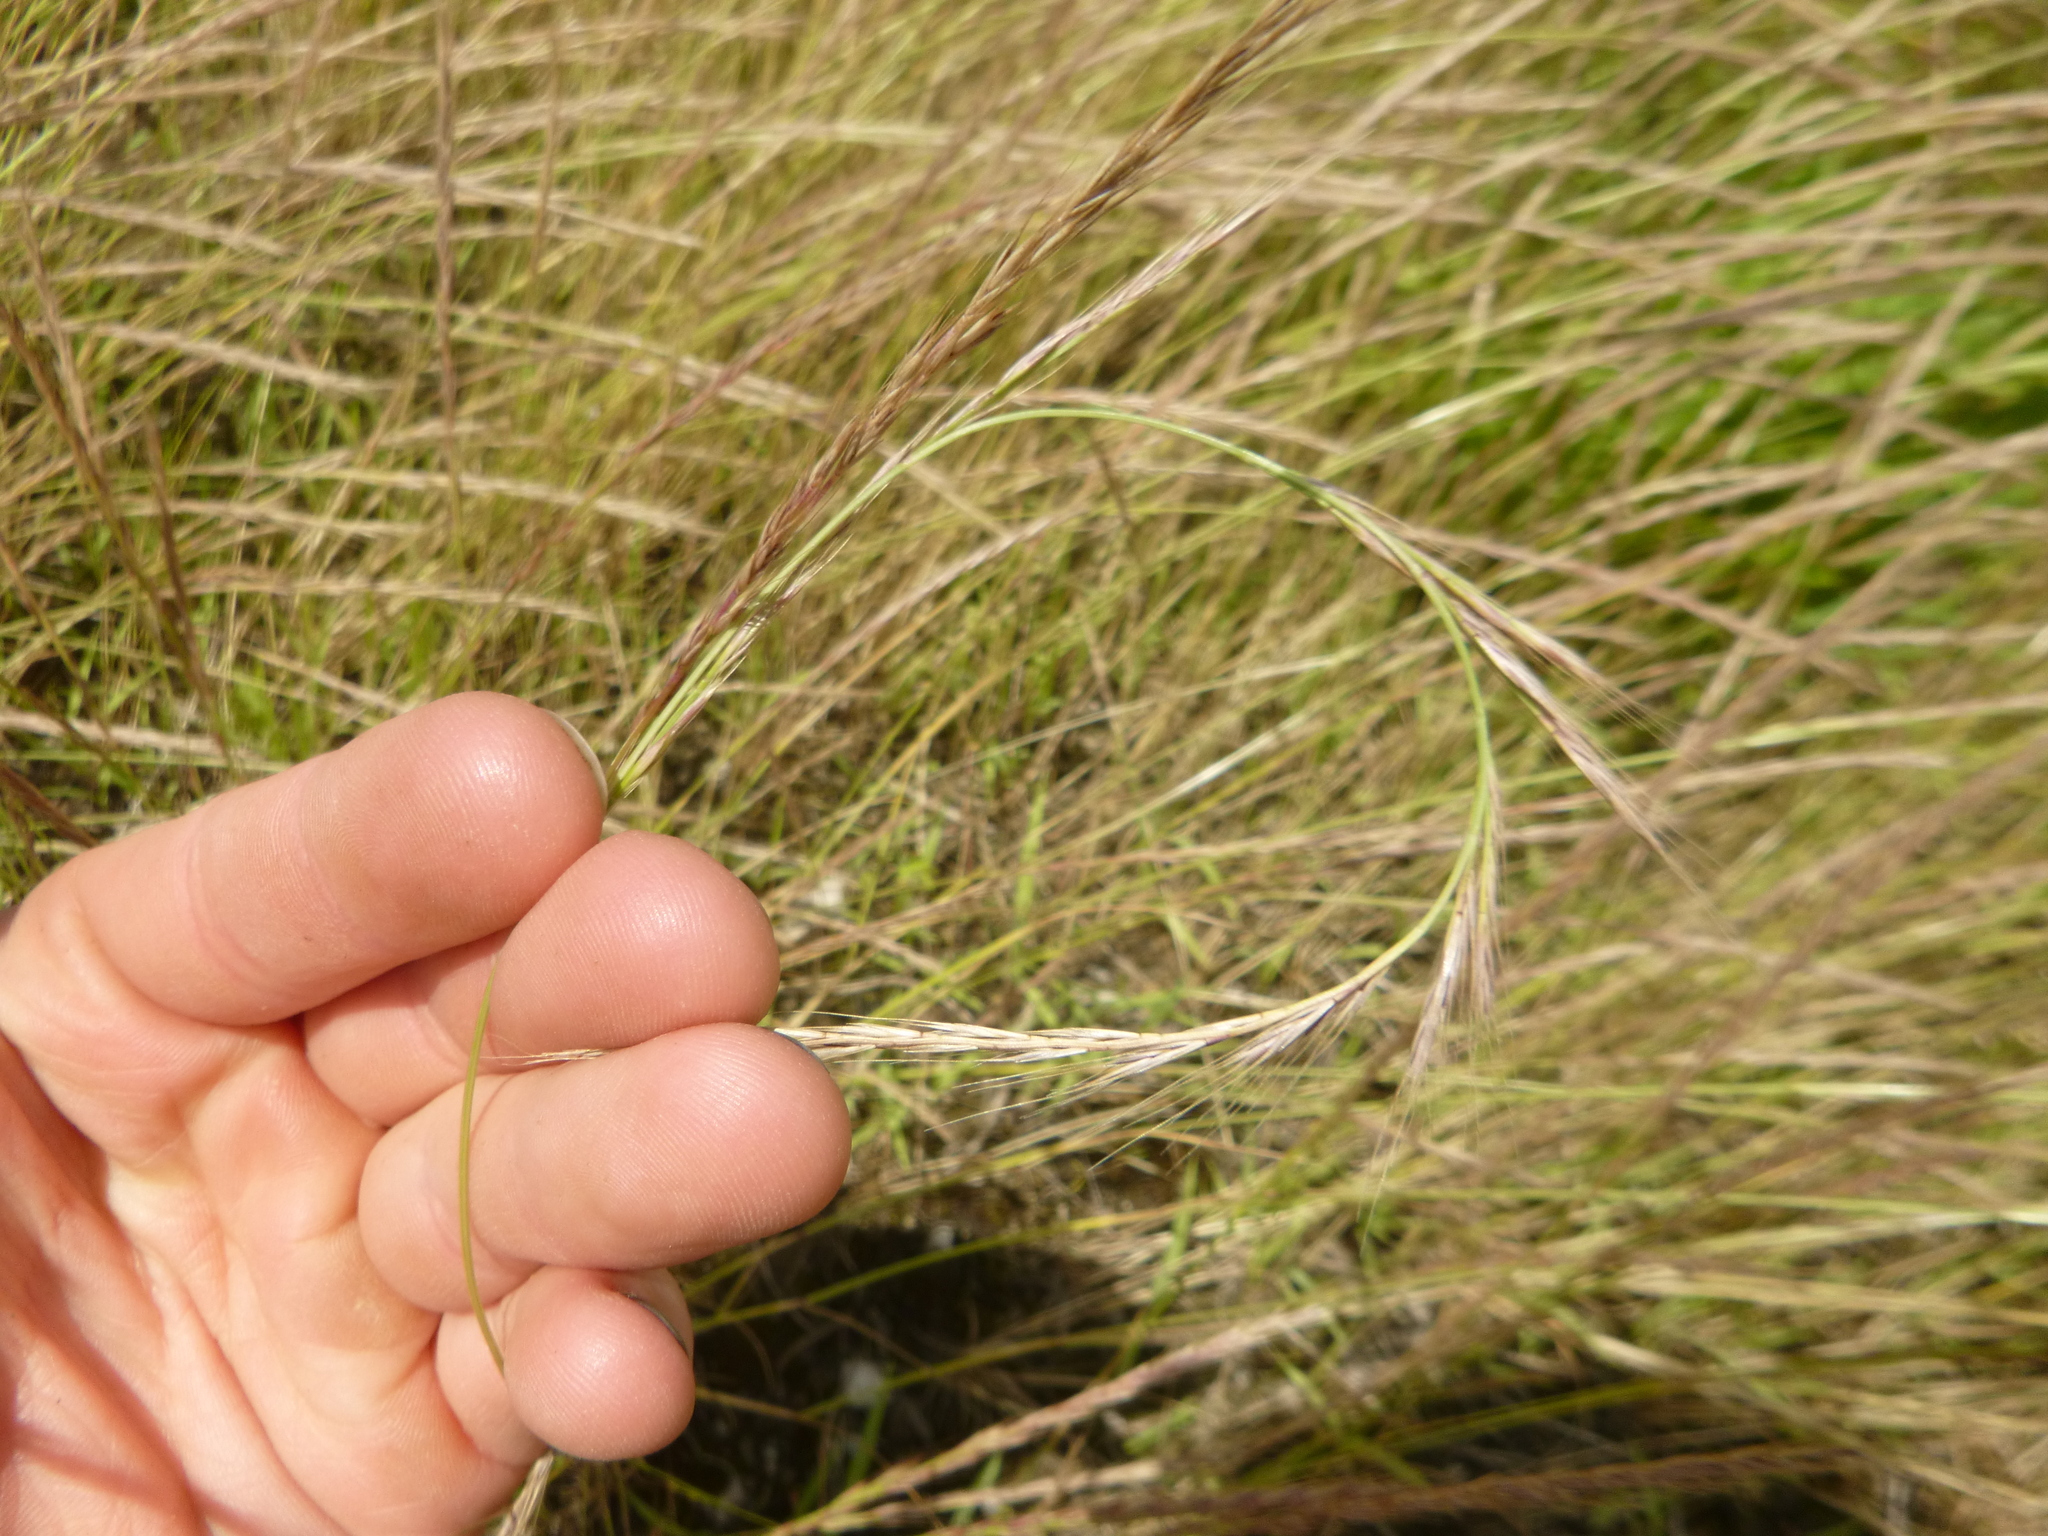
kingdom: Plantae
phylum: Tracheophyta
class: Liliopsida
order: Poales
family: Poaceae
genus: Festuca
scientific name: Festuca myuros
